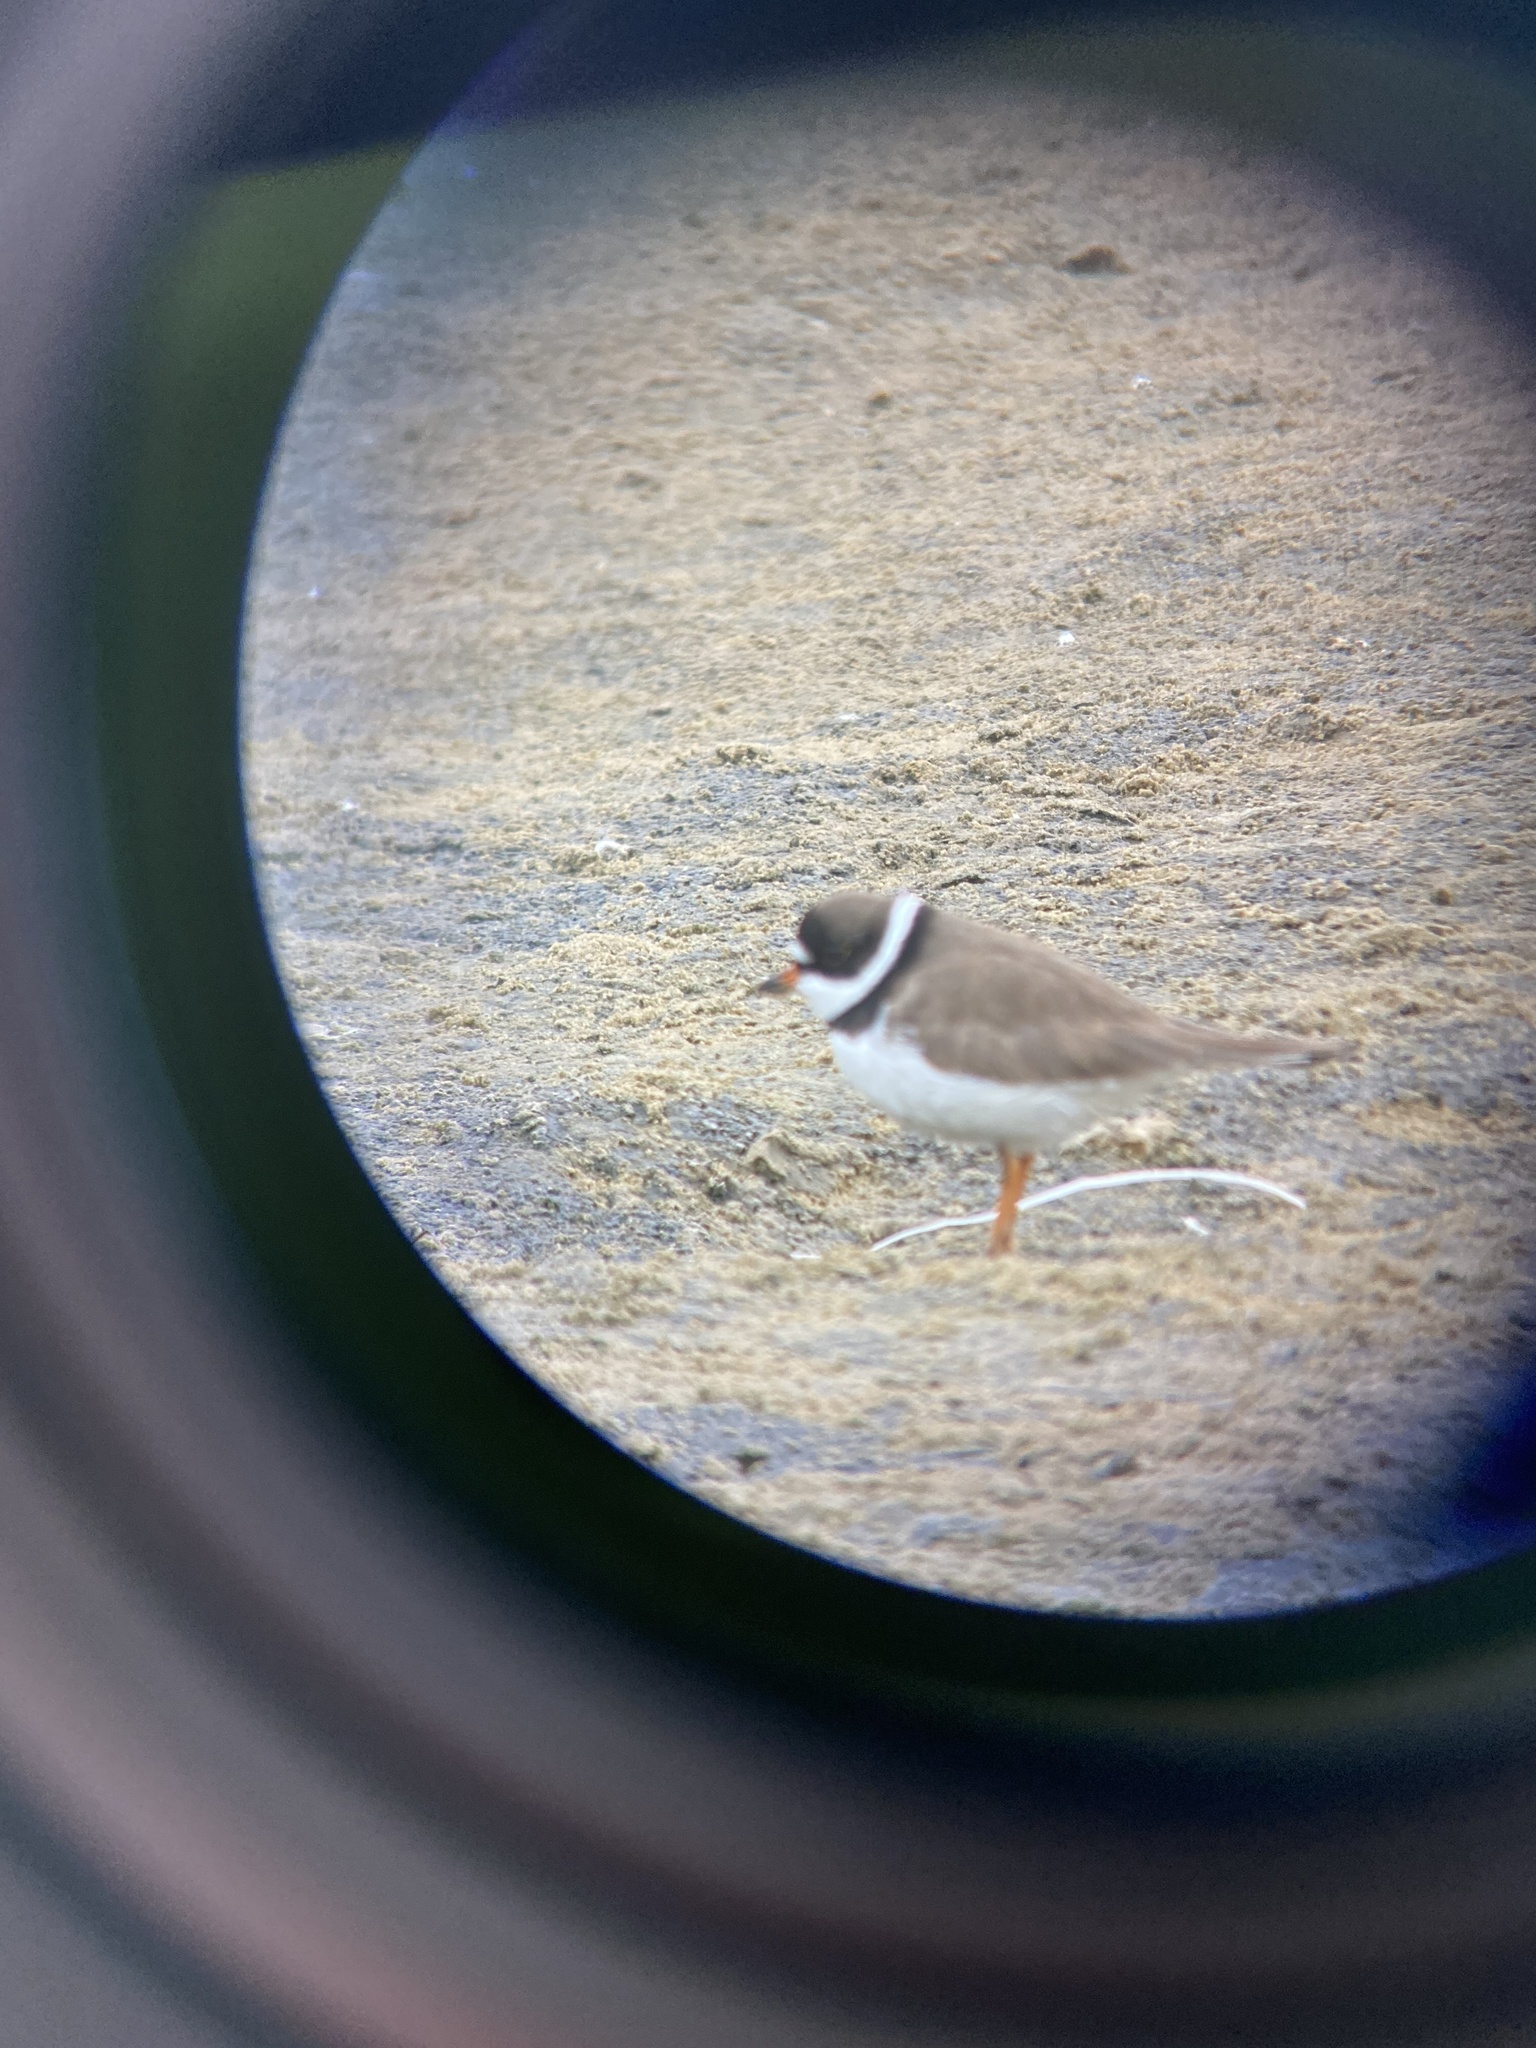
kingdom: Animalia
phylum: Chordata
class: Aves
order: Charadriiformes
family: Charadriidae
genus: Charadrius
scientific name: Charadrius semipalmatus
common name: Semipalmated plover
